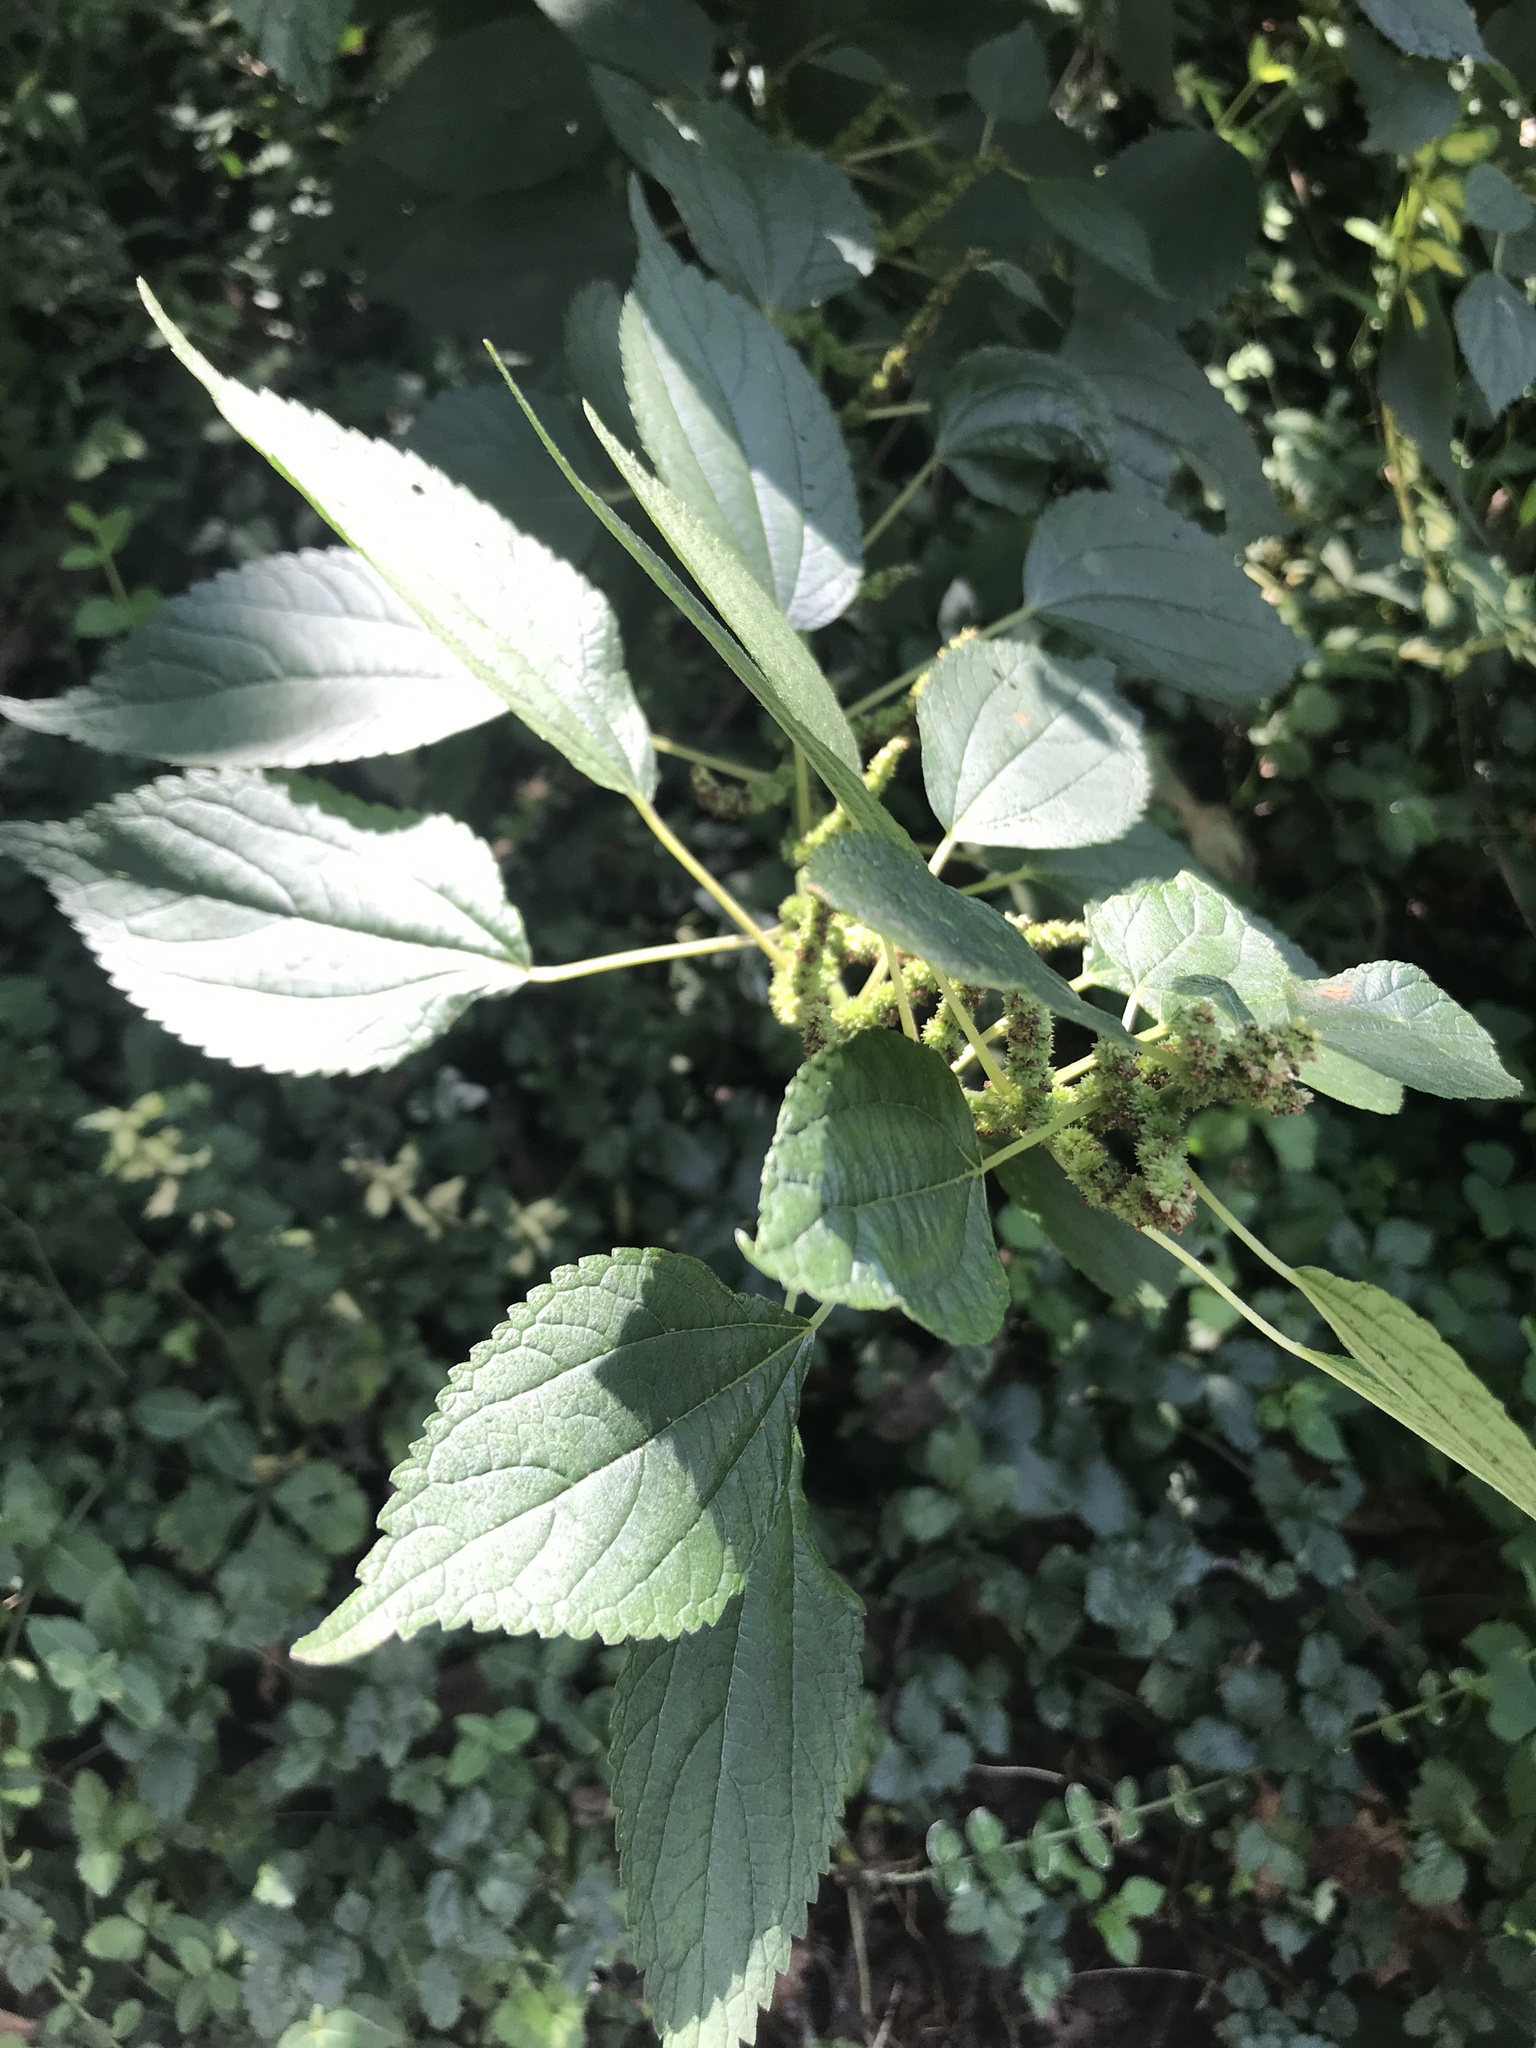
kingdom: Plantae
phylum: Tracheophyta
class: Magnoliopsida
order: Rosales
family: Urticaceae
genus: Boehmeria
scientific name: Boehmeria cylindrica
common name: Bog-hemp
